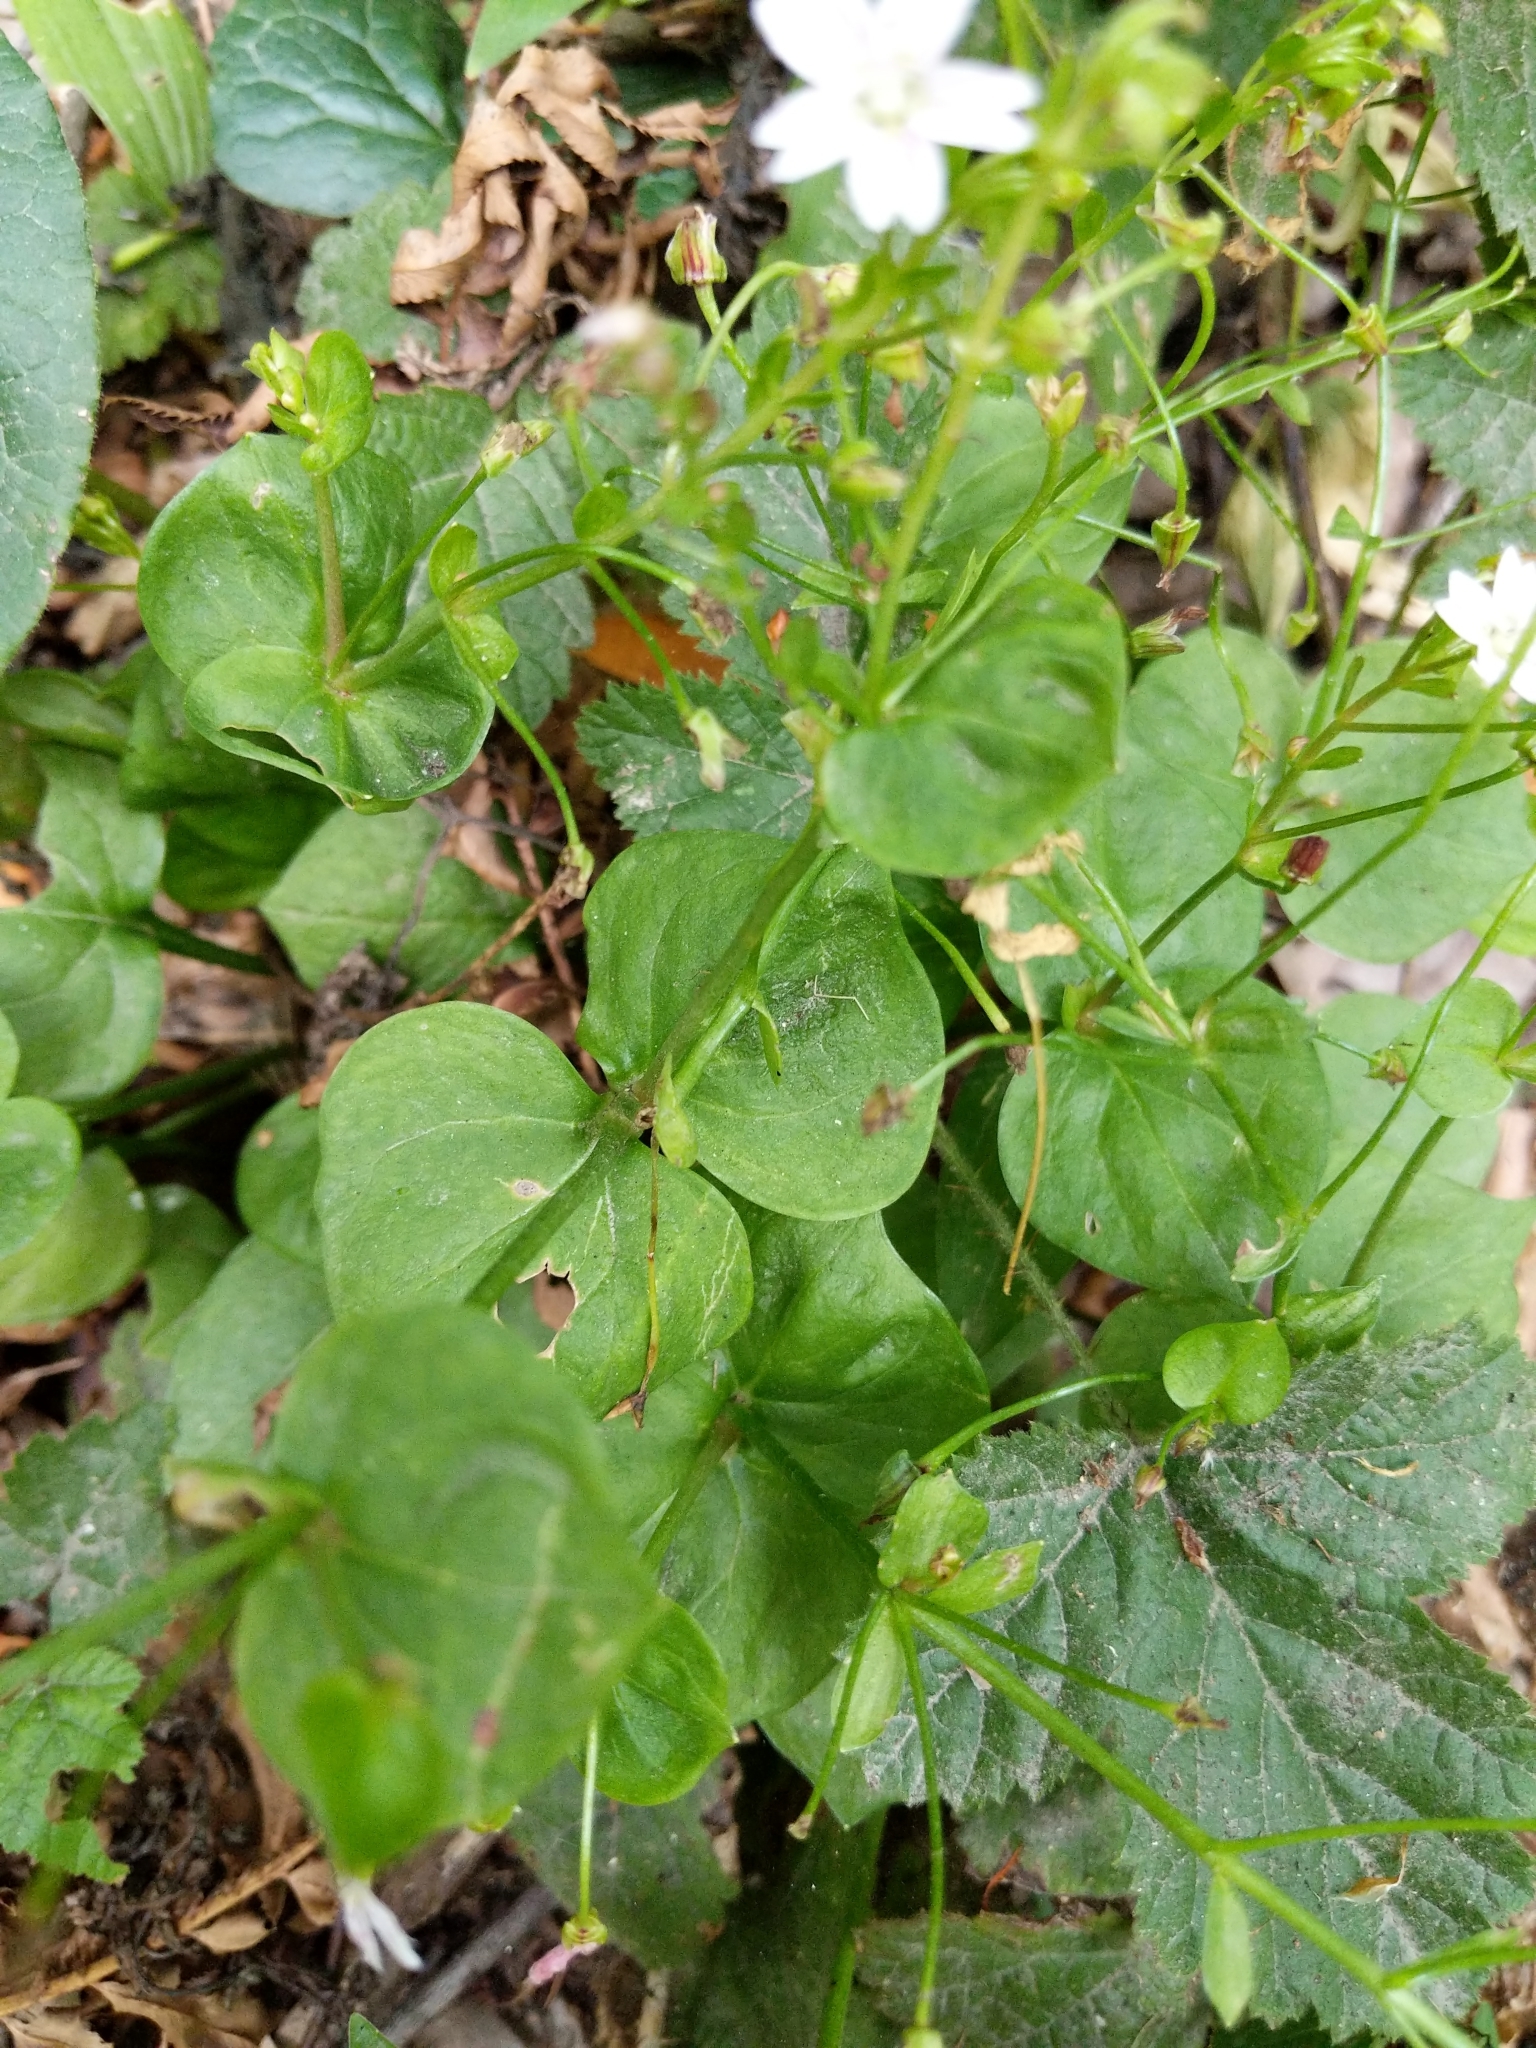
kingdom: Plantae
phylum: Tracheophyta
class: Magnoliopsida
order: Caryophyllales
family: Montiaceae
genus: Claytonia
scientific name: Claytonia sibirica
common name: Pink purslane
